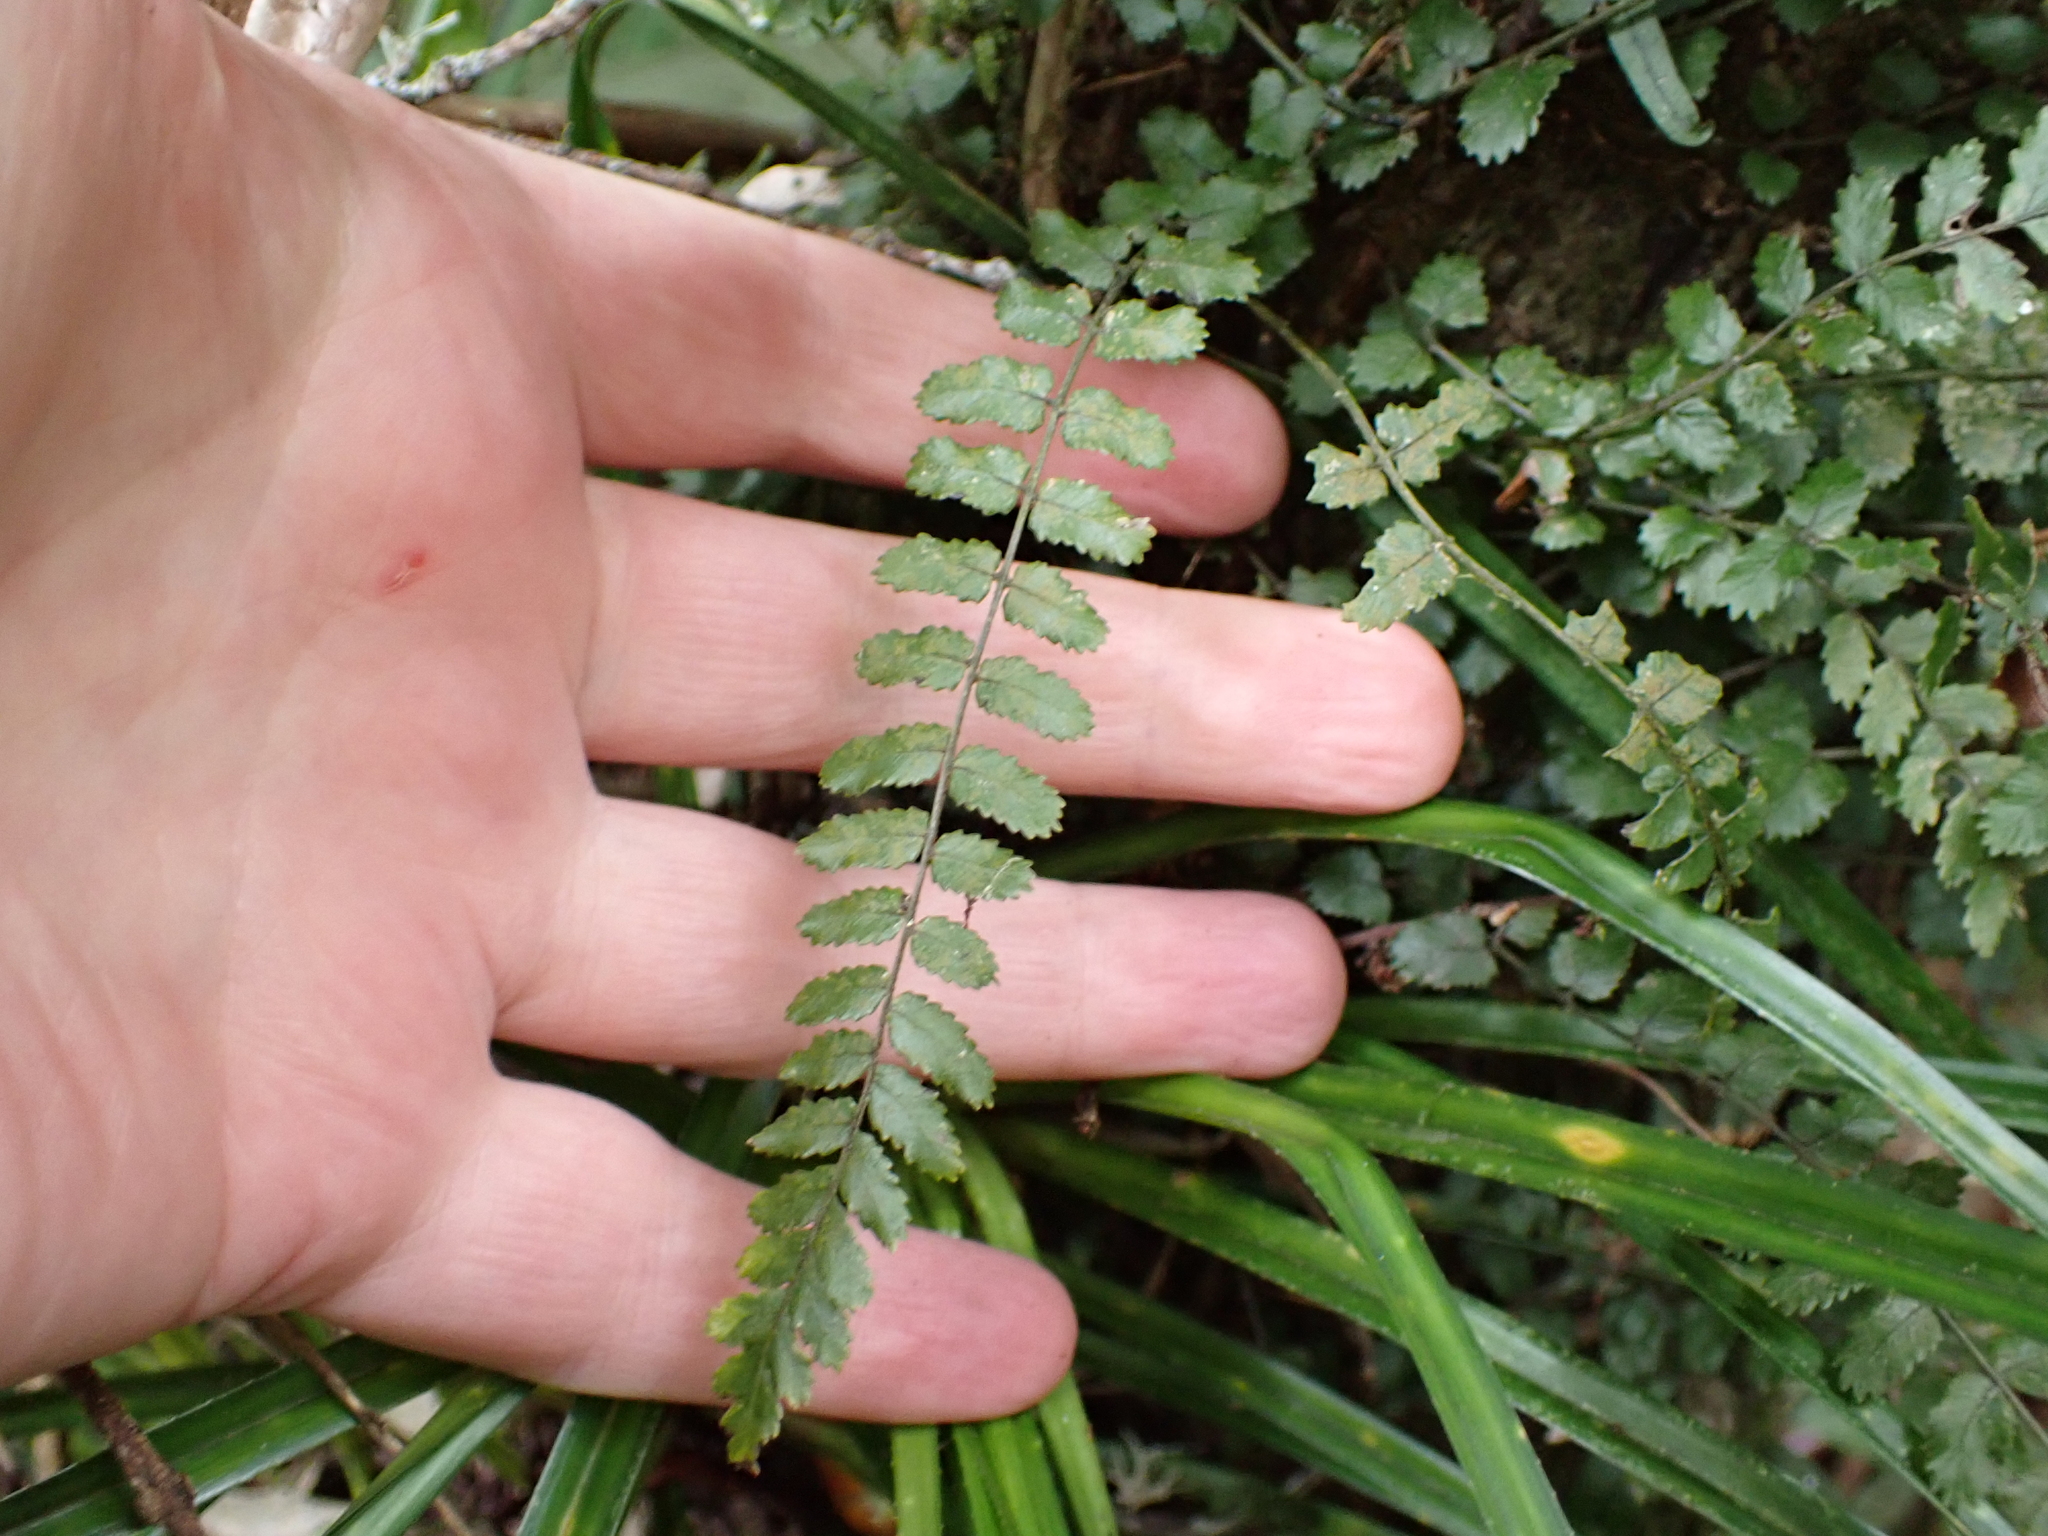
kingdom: Plantae
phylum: Tracheophyta
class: Polypodiopsida
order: Polypodiales
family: Blechnaceae
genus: Icarus
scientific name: Icarus filiformis
